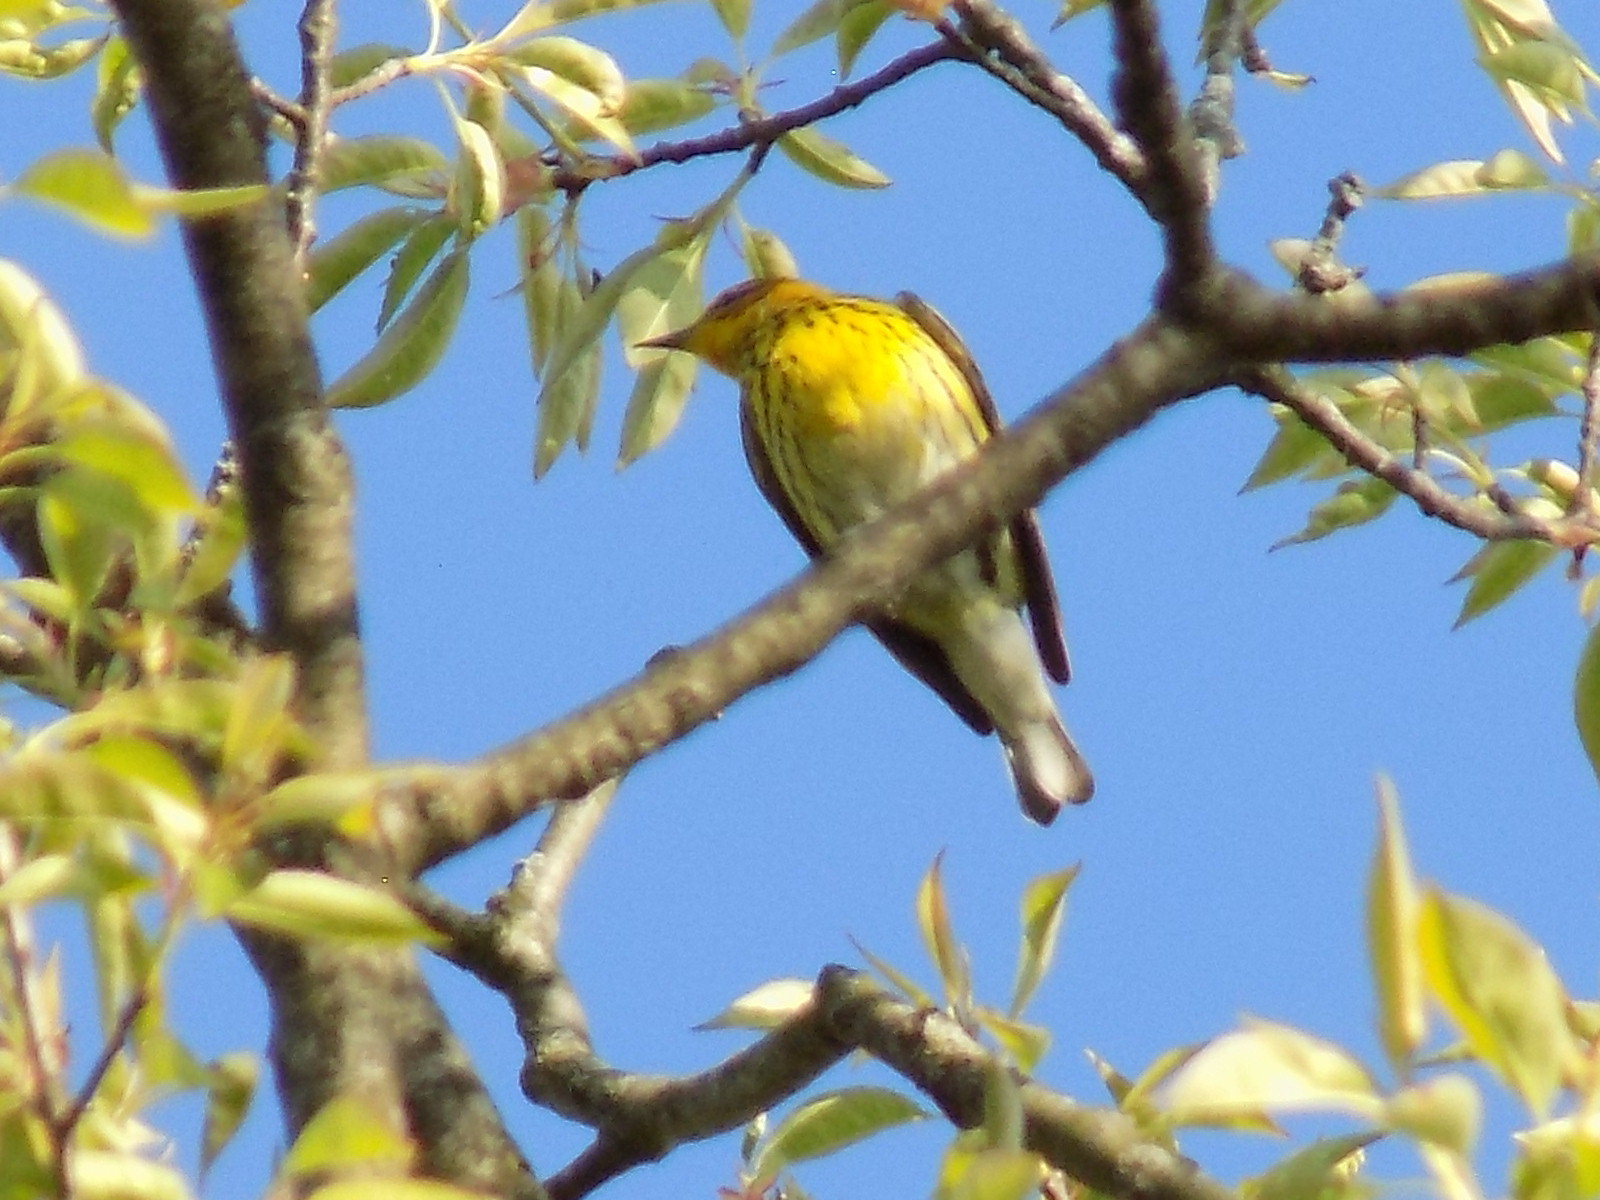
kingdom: Animalia
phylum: Chordata
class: Aves
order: Passeriformes
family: Parulidae
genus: Setophaga
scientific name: Setophaga tigrina
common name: Cape may warbler
